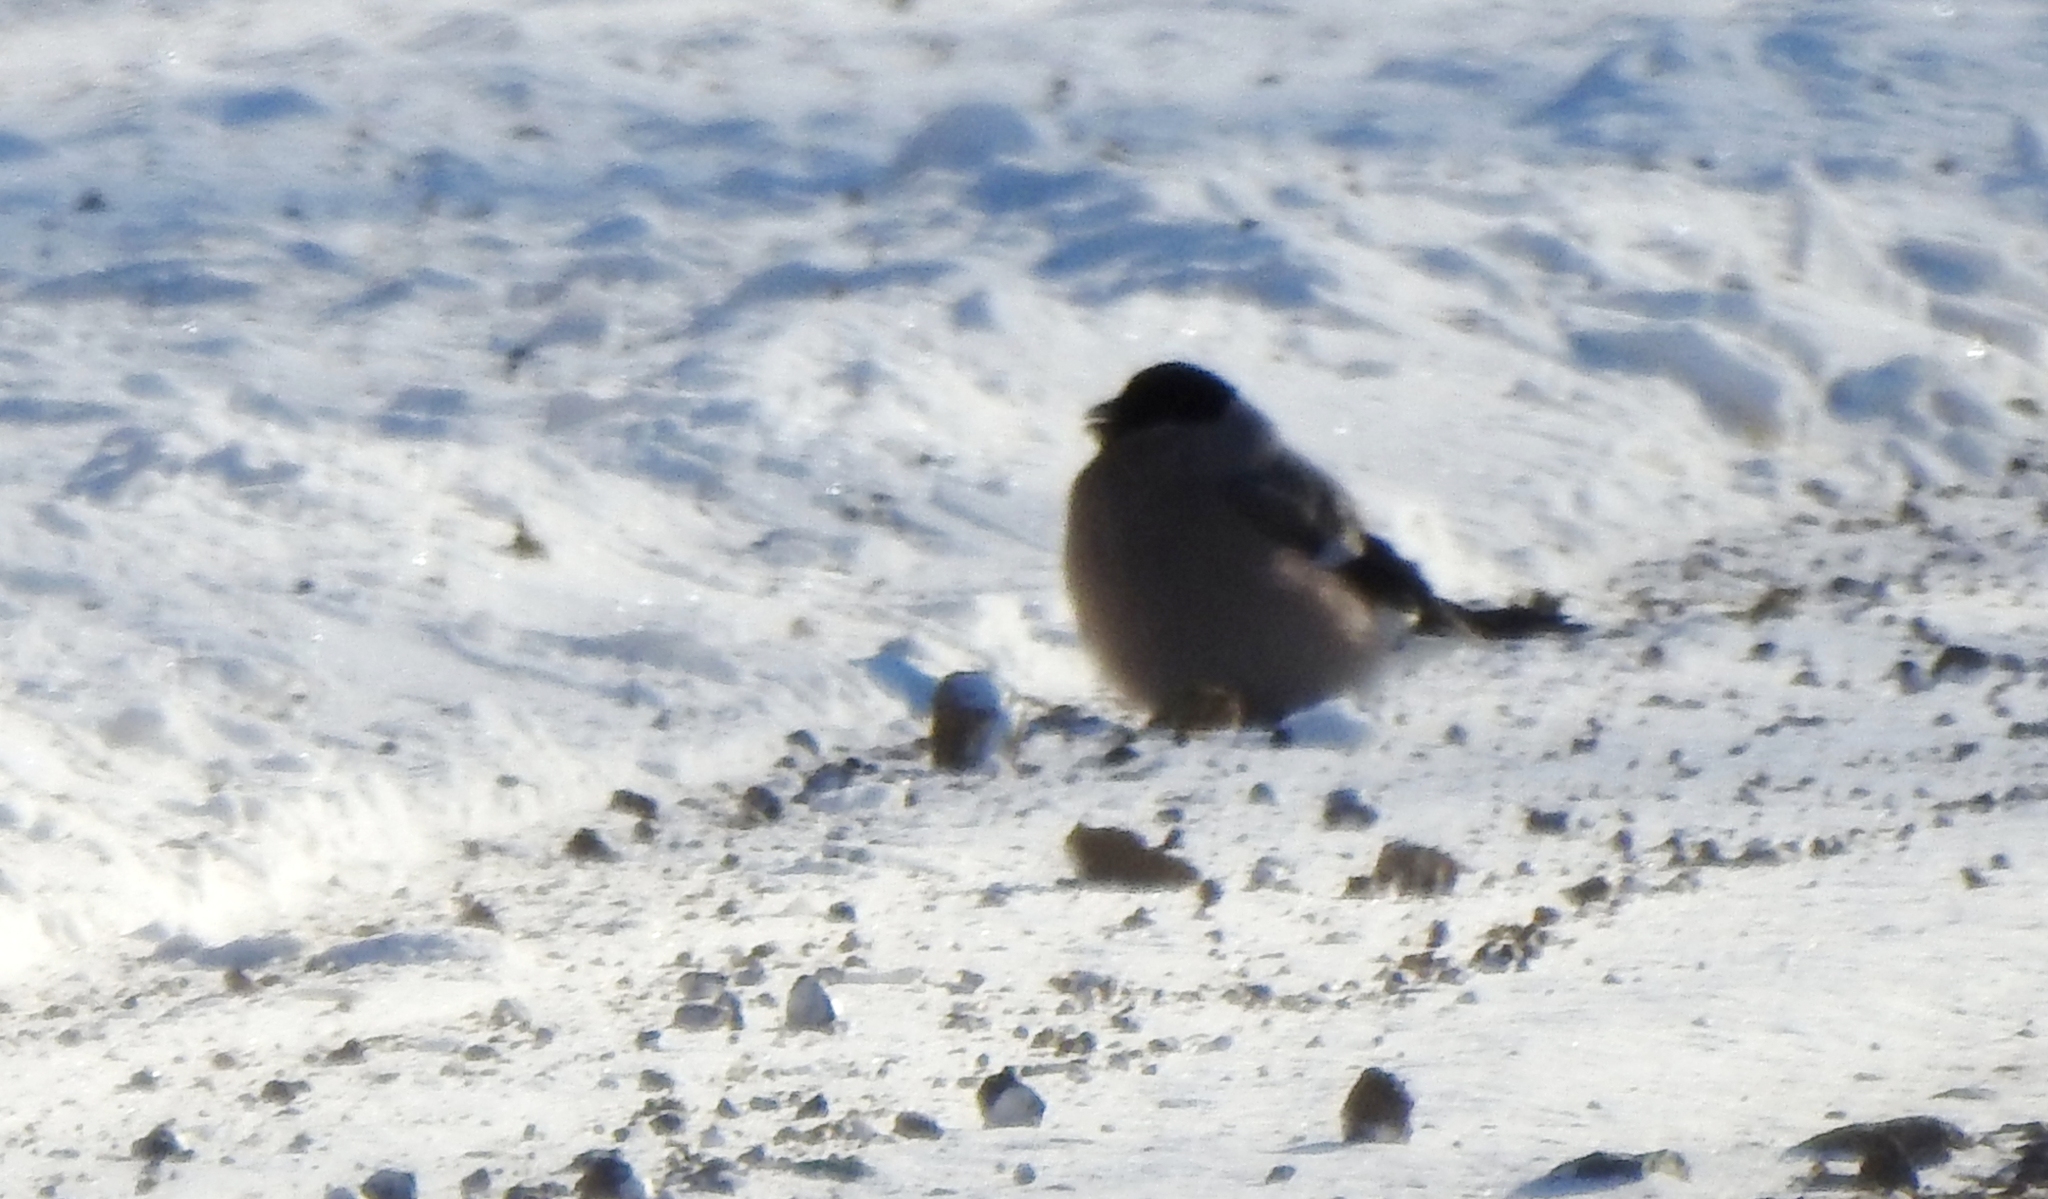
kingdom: Animalia
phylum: Chordata
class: Aves
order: Passeriformes
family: Fringillidae
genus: Pyrrhula
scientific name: Pyrrhula pyrrhula
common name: Eurasian bullfinch
